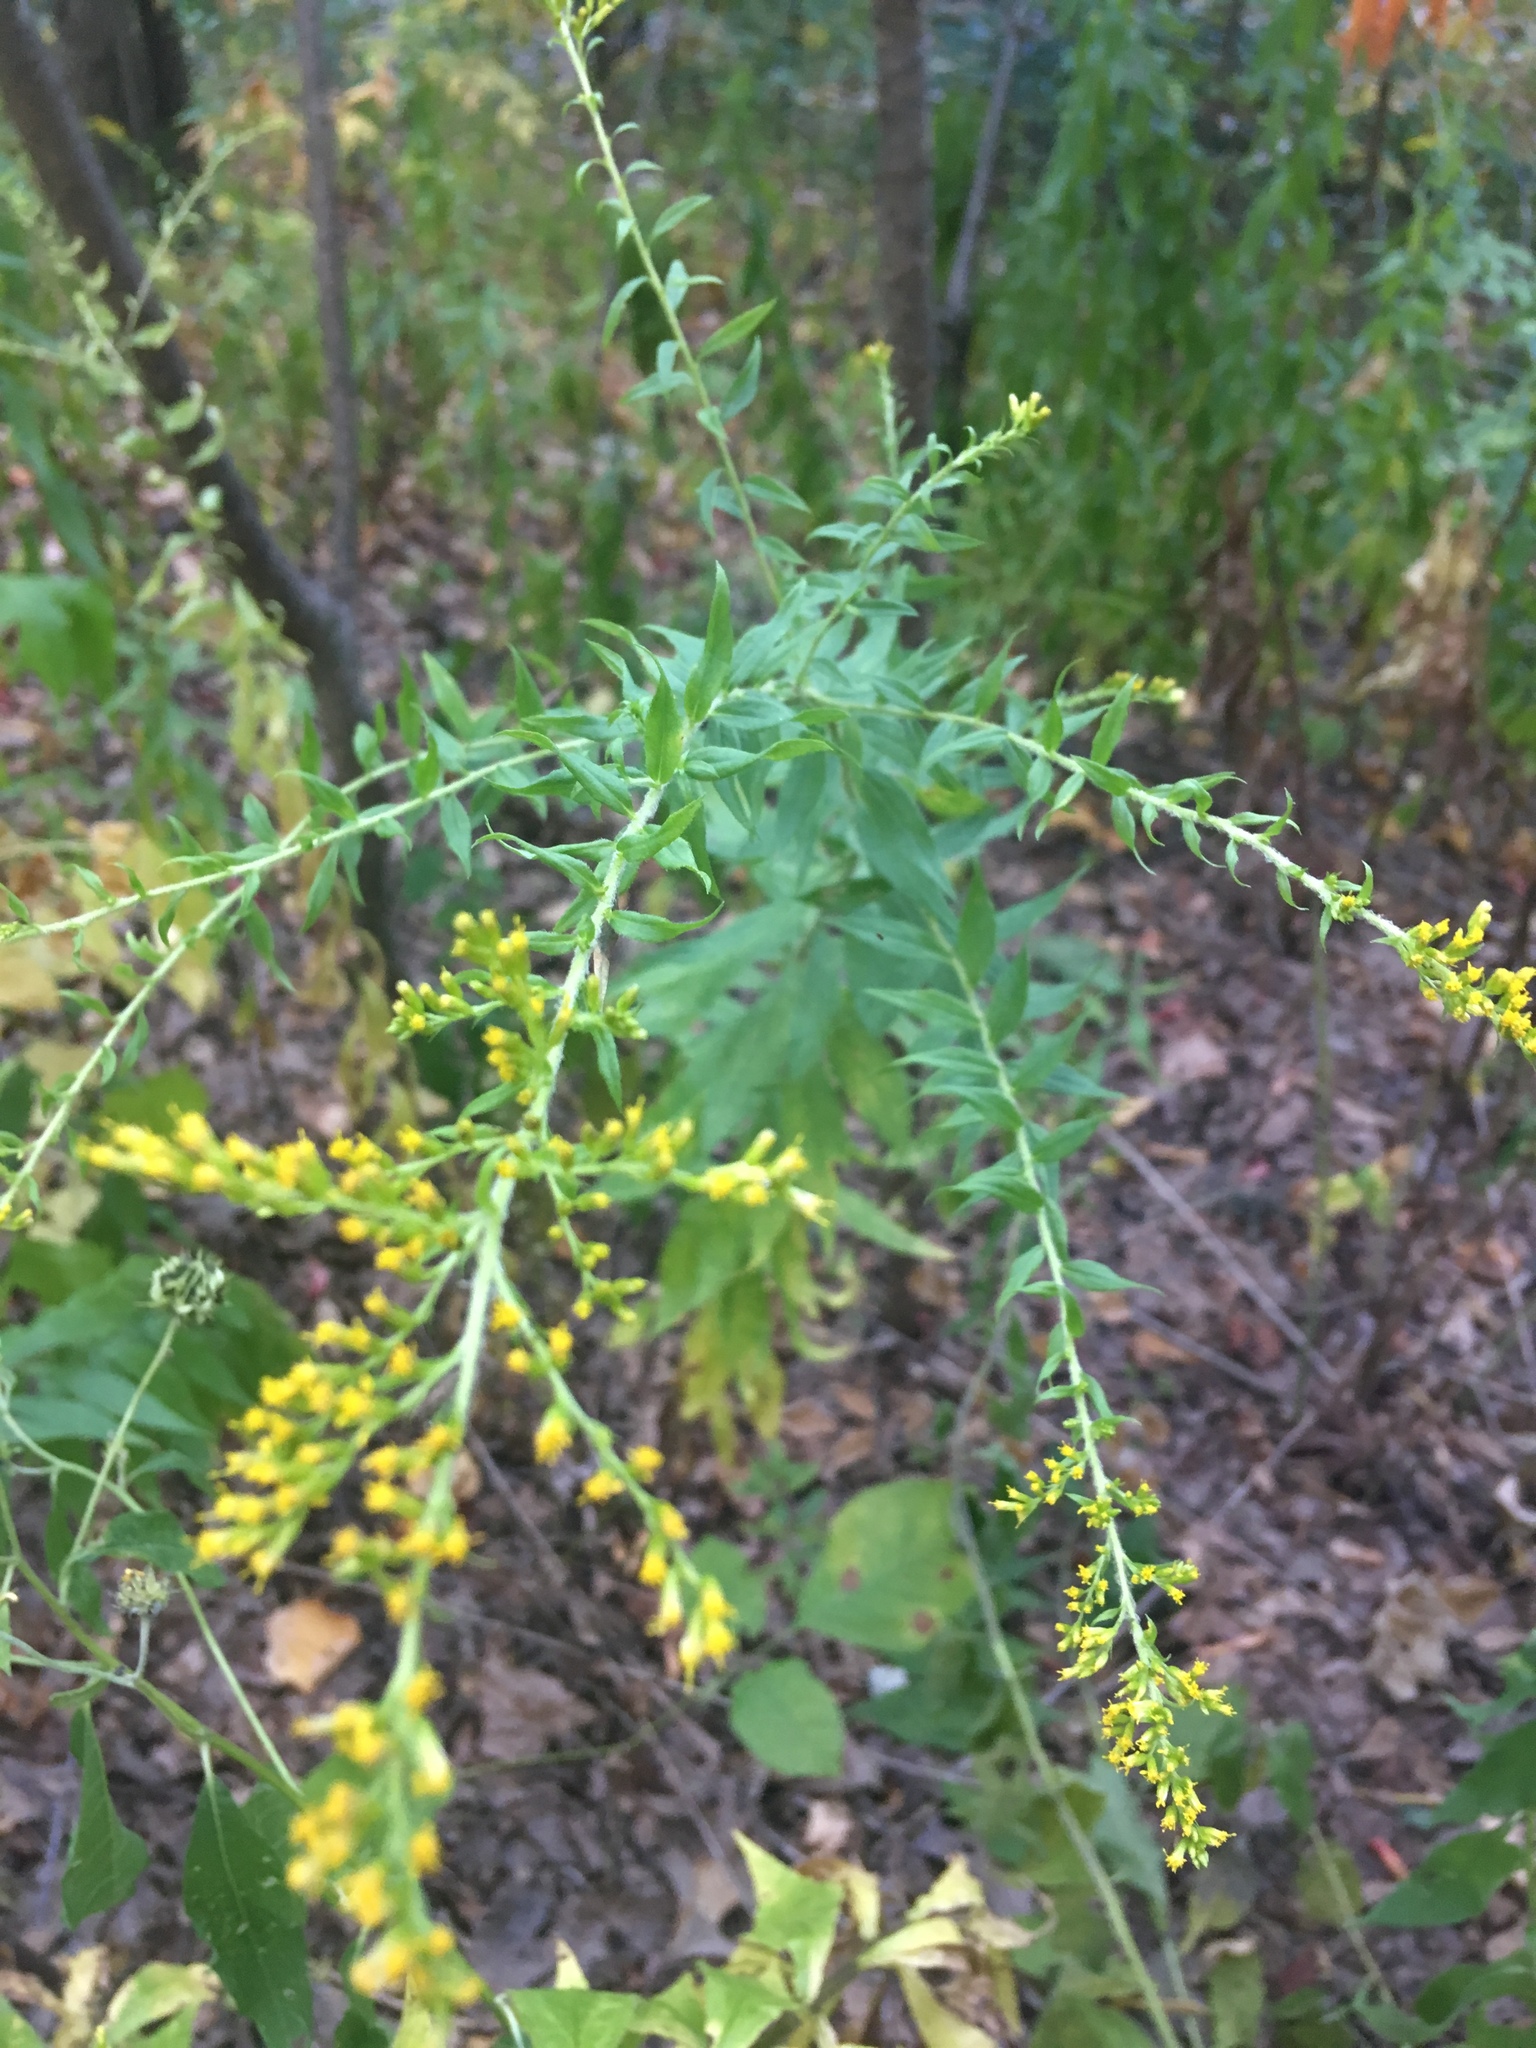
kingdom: Plantae
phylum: Tracheophyta
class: Magnoliopsida
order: Asterales
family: Asteraceae
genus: Solidago
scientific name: Solidago rugosa
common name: Rough-stemmed goldenrod
